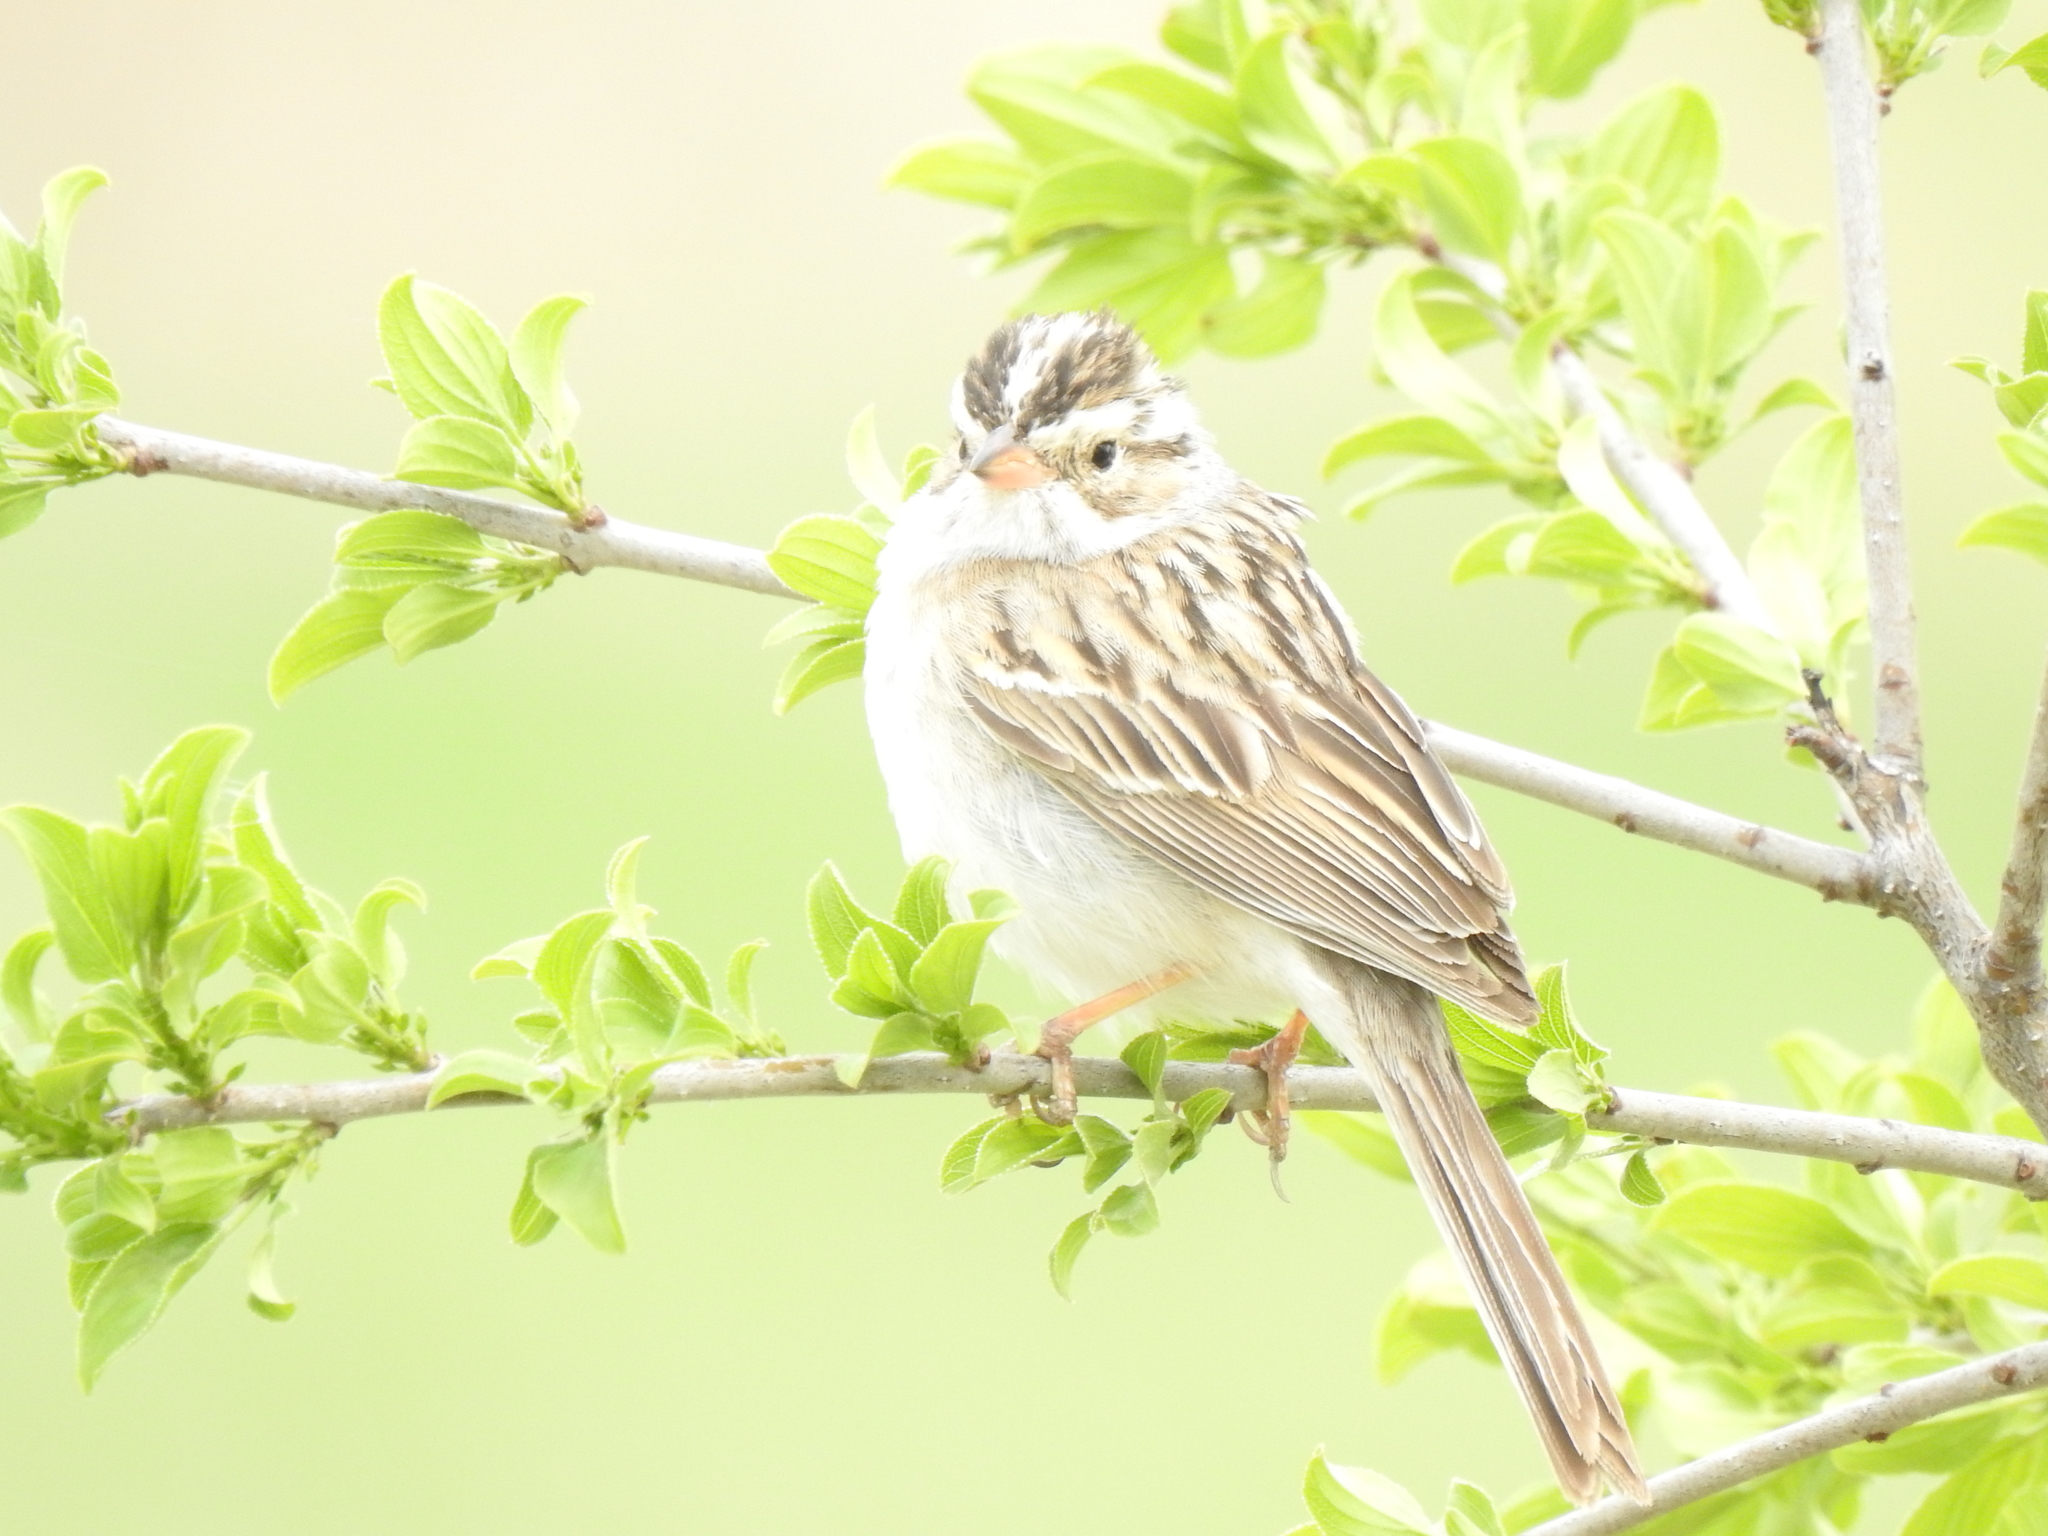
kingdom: Animalia
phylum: Chordata
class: Aves
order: Passeriformes
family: Passerellidae
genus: Spizella
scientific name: Spizella pallida
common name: Clay-colored sparrow
